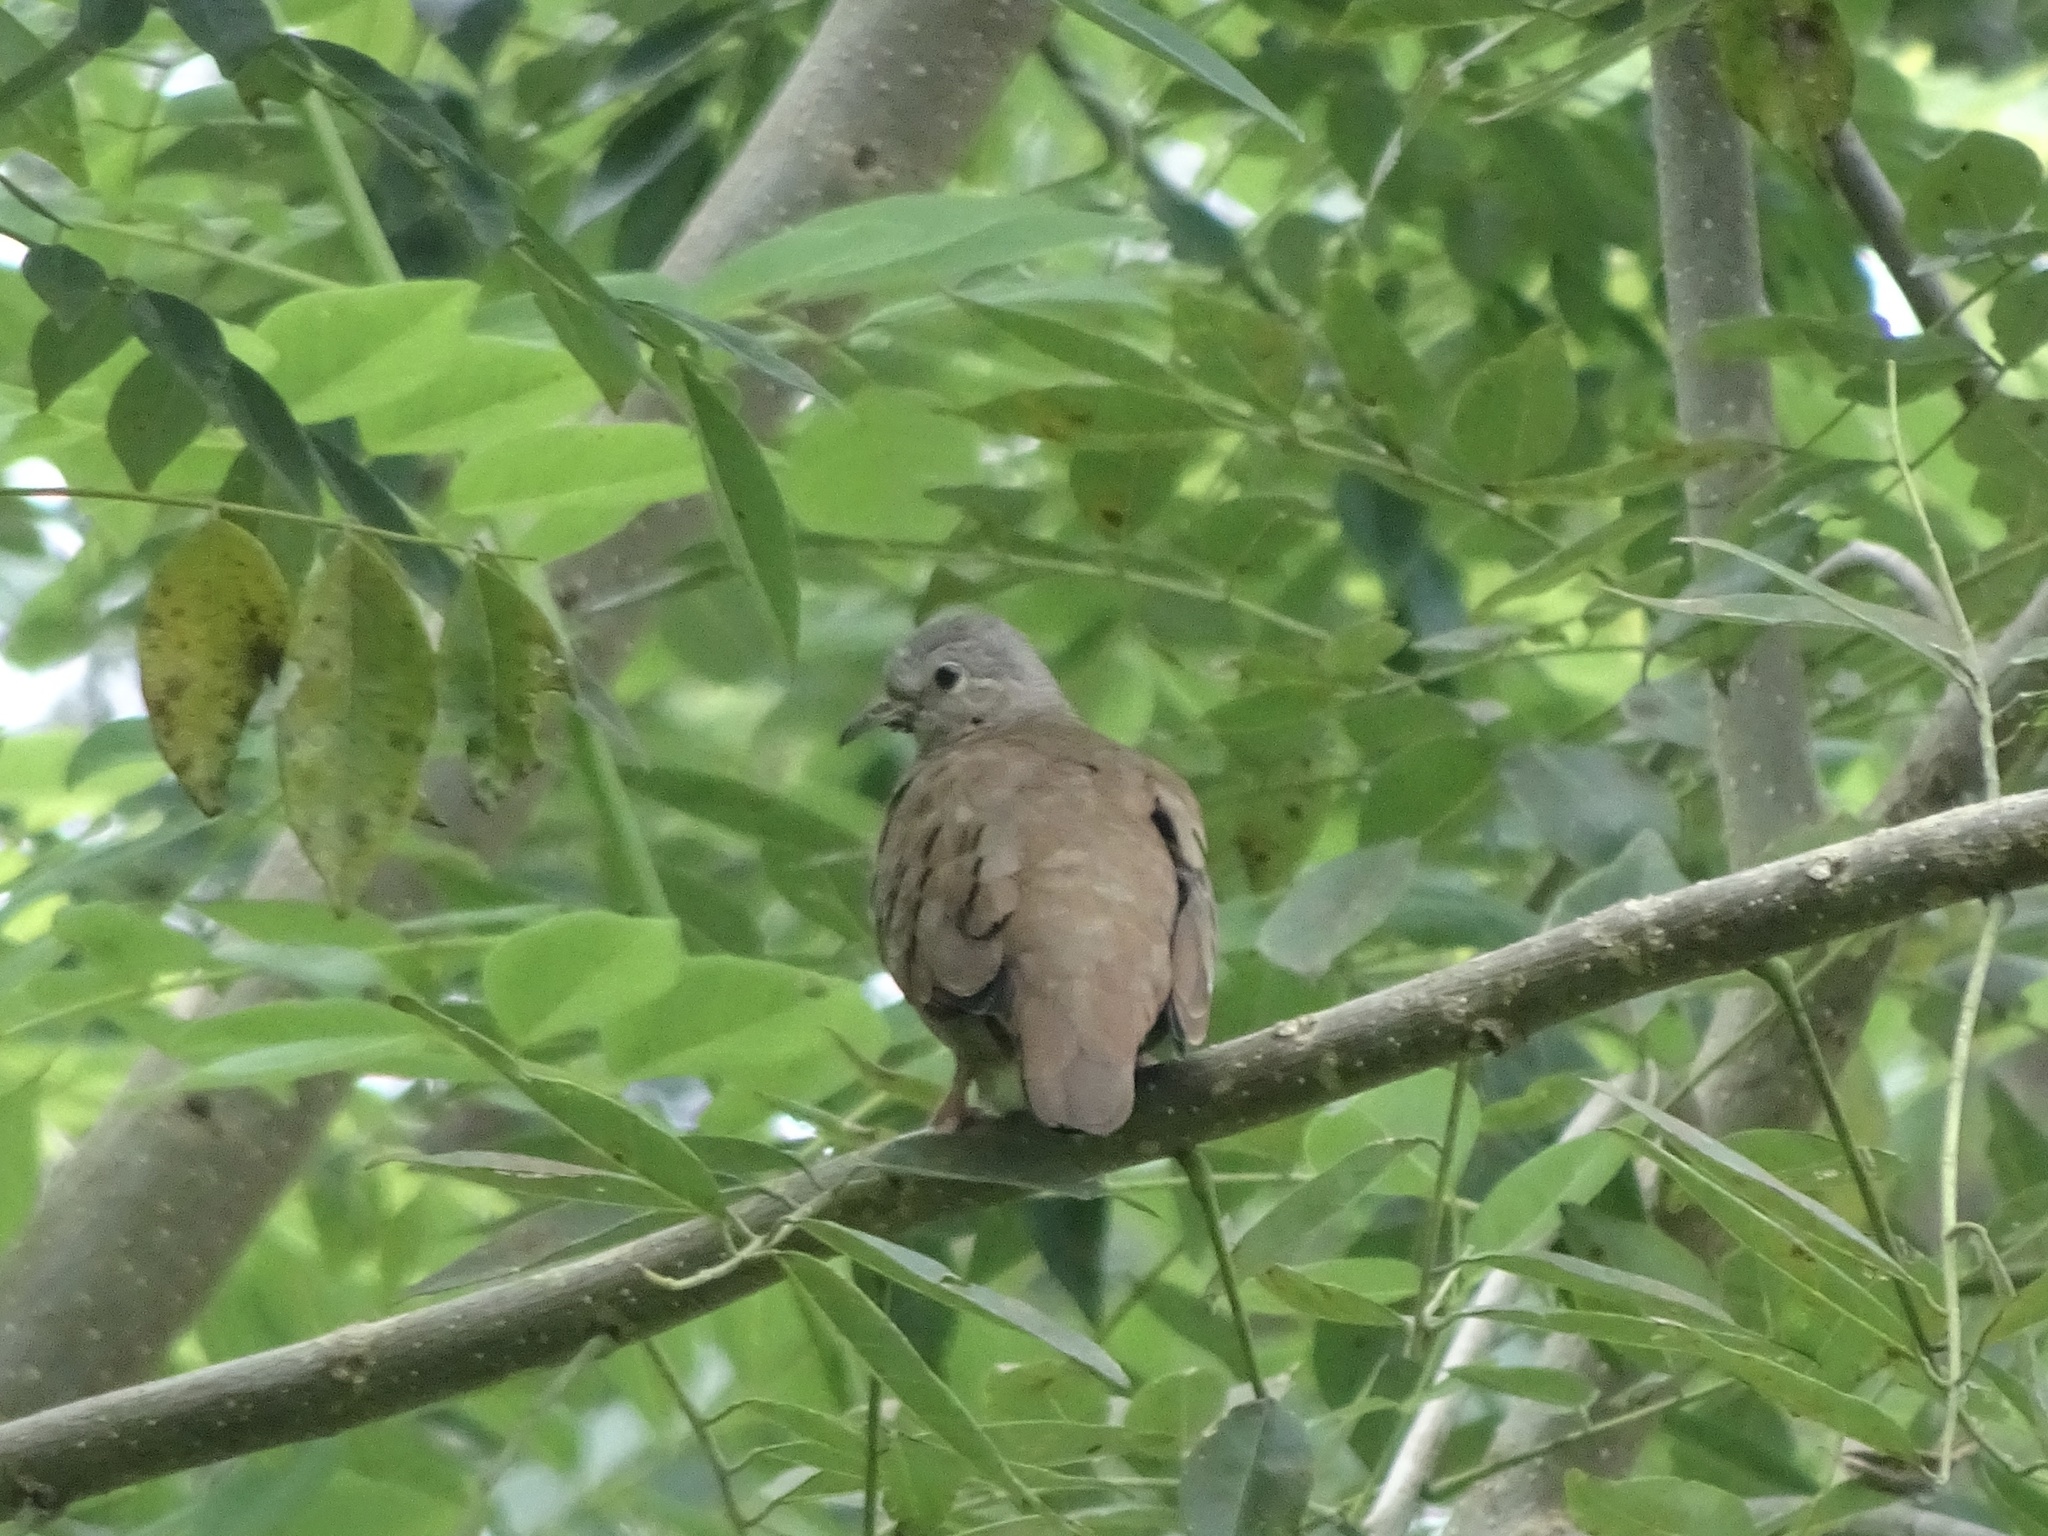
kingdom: Animalia
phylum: Chordata
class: Aves
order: Columbiformes
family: Columbidae
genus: Columbina
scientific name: Columbina talpacoti
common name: Ruddy ground dove
